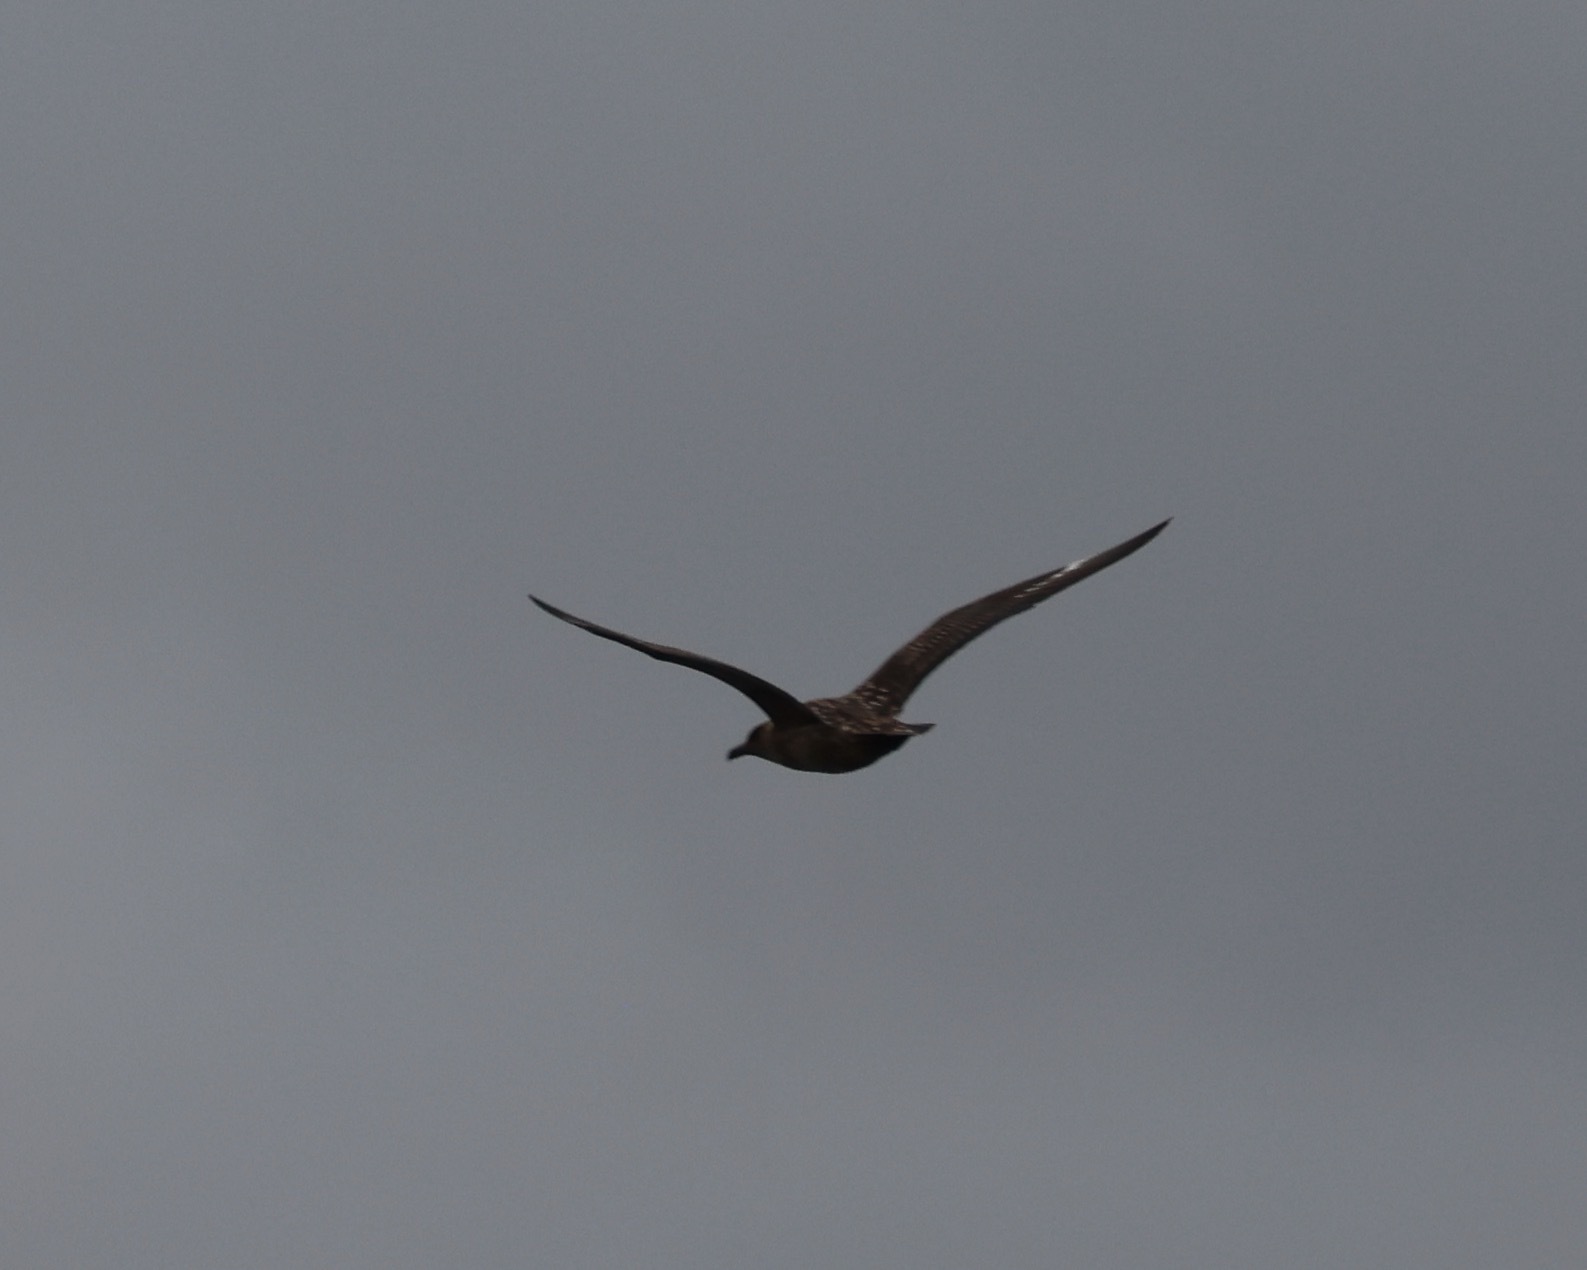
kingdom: Animalia
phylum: Chordata
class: Aves
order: Charadriiformes
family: Stercorariidae
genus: Stercorarius
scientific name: Stercorarius skua
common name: Great skua
